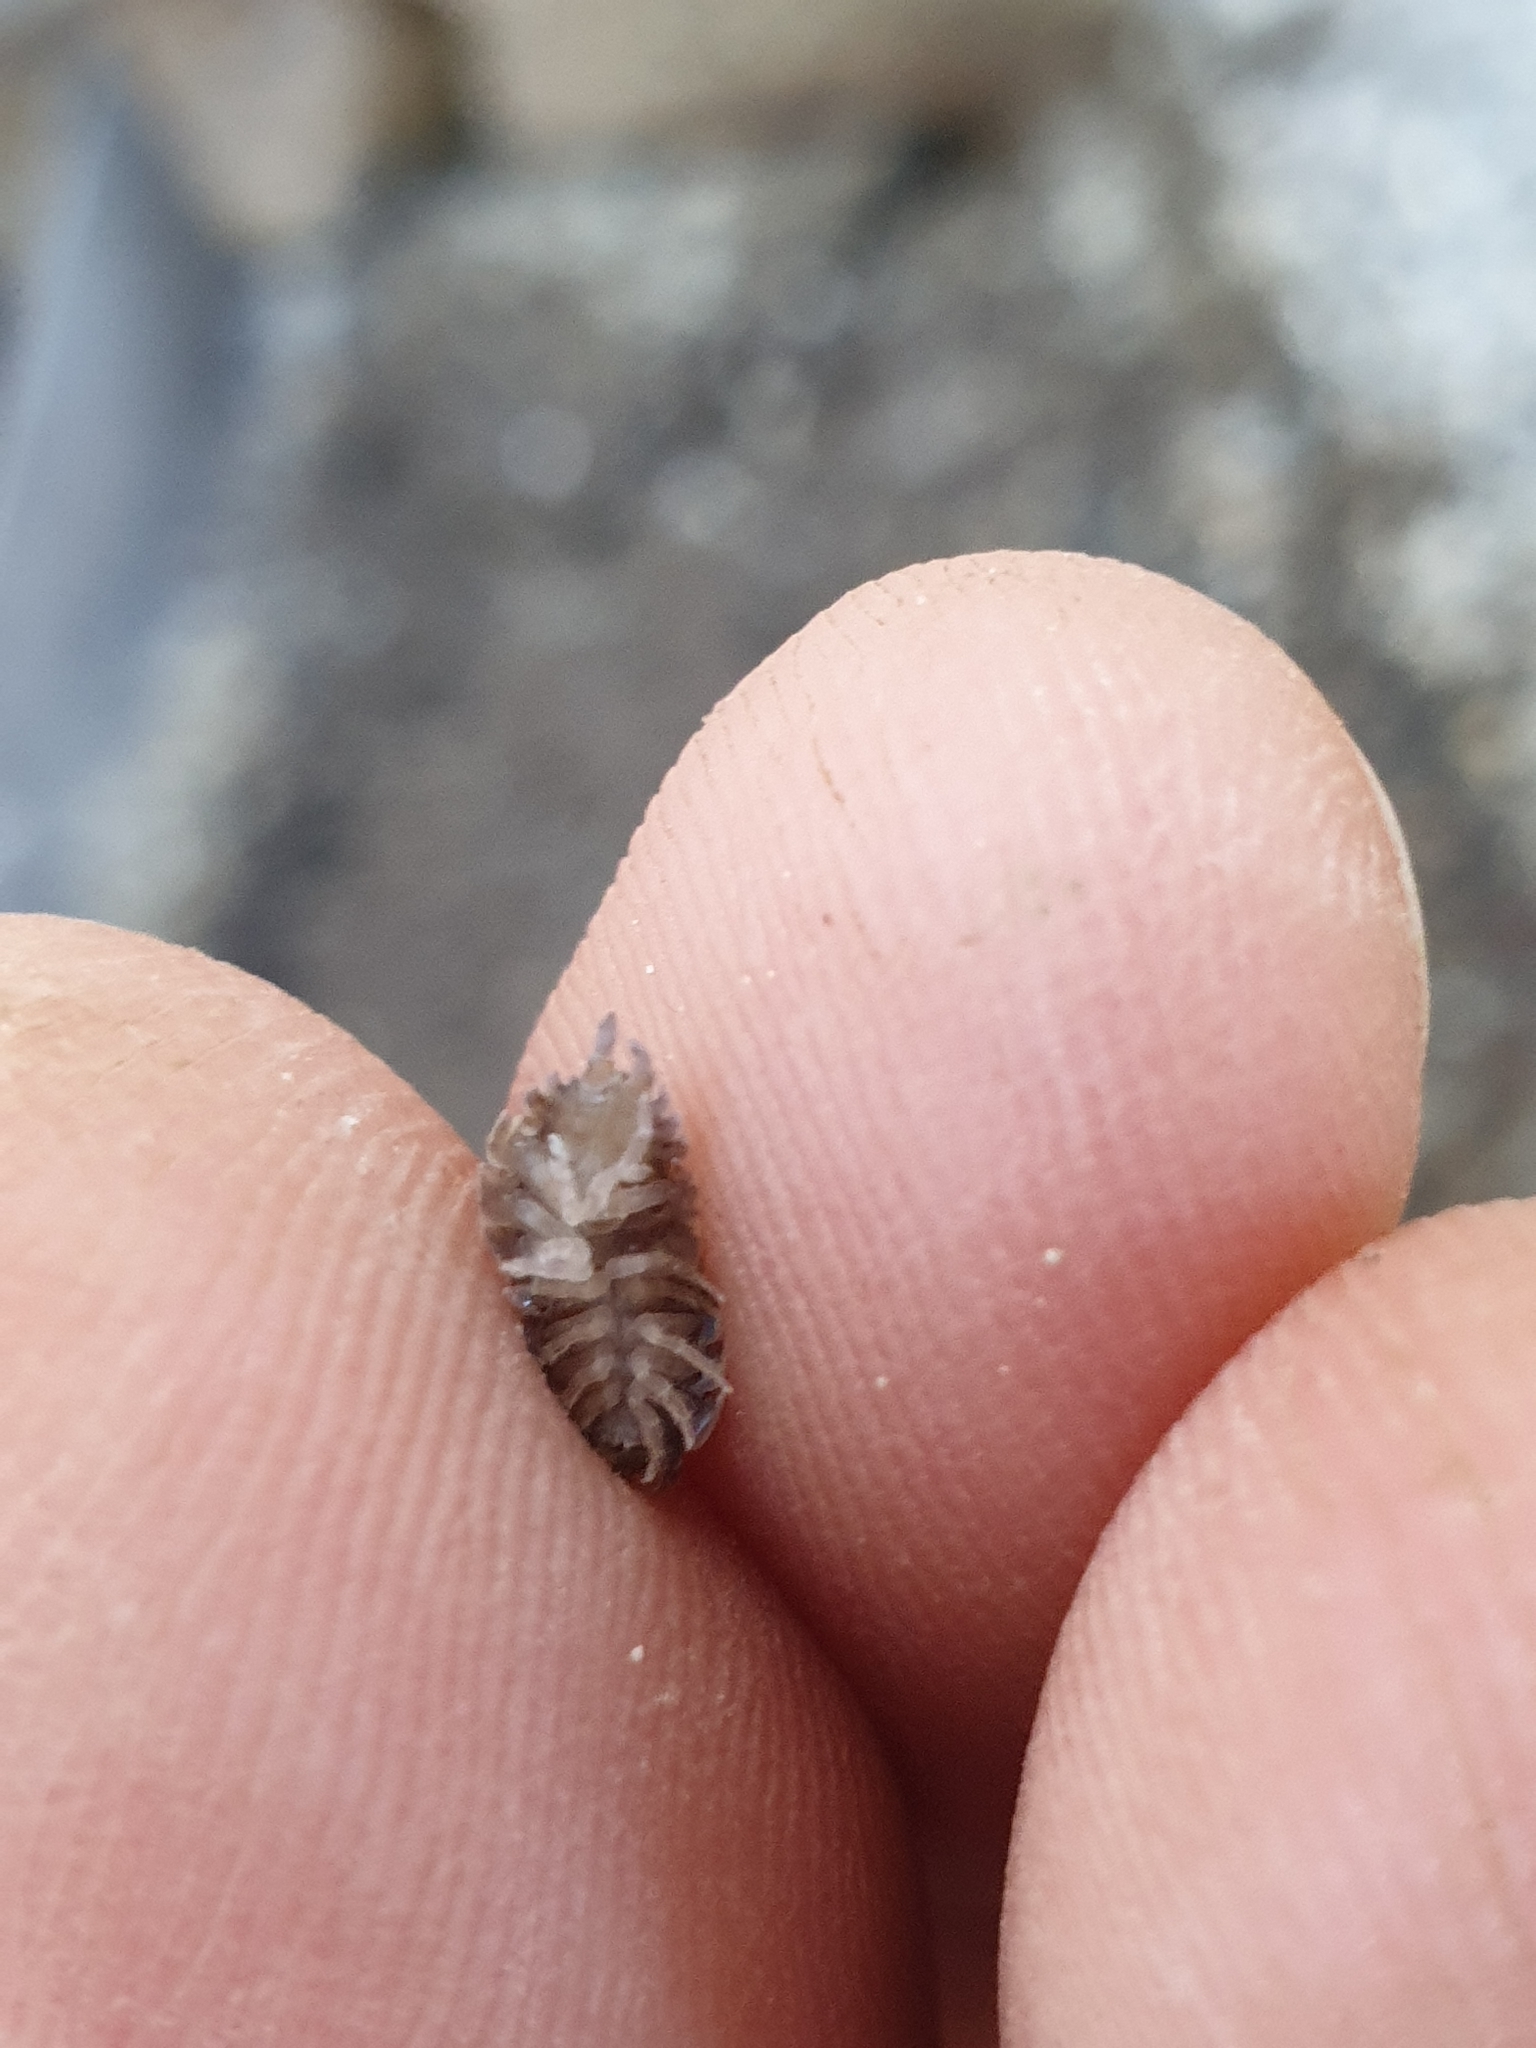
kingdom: Animalia
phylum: Arthropoda
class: Malacostraca
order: Isopoda
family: Porcellionidae
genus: Porcellio
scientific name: Porcellio scaber
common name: Common rough woodlouse
